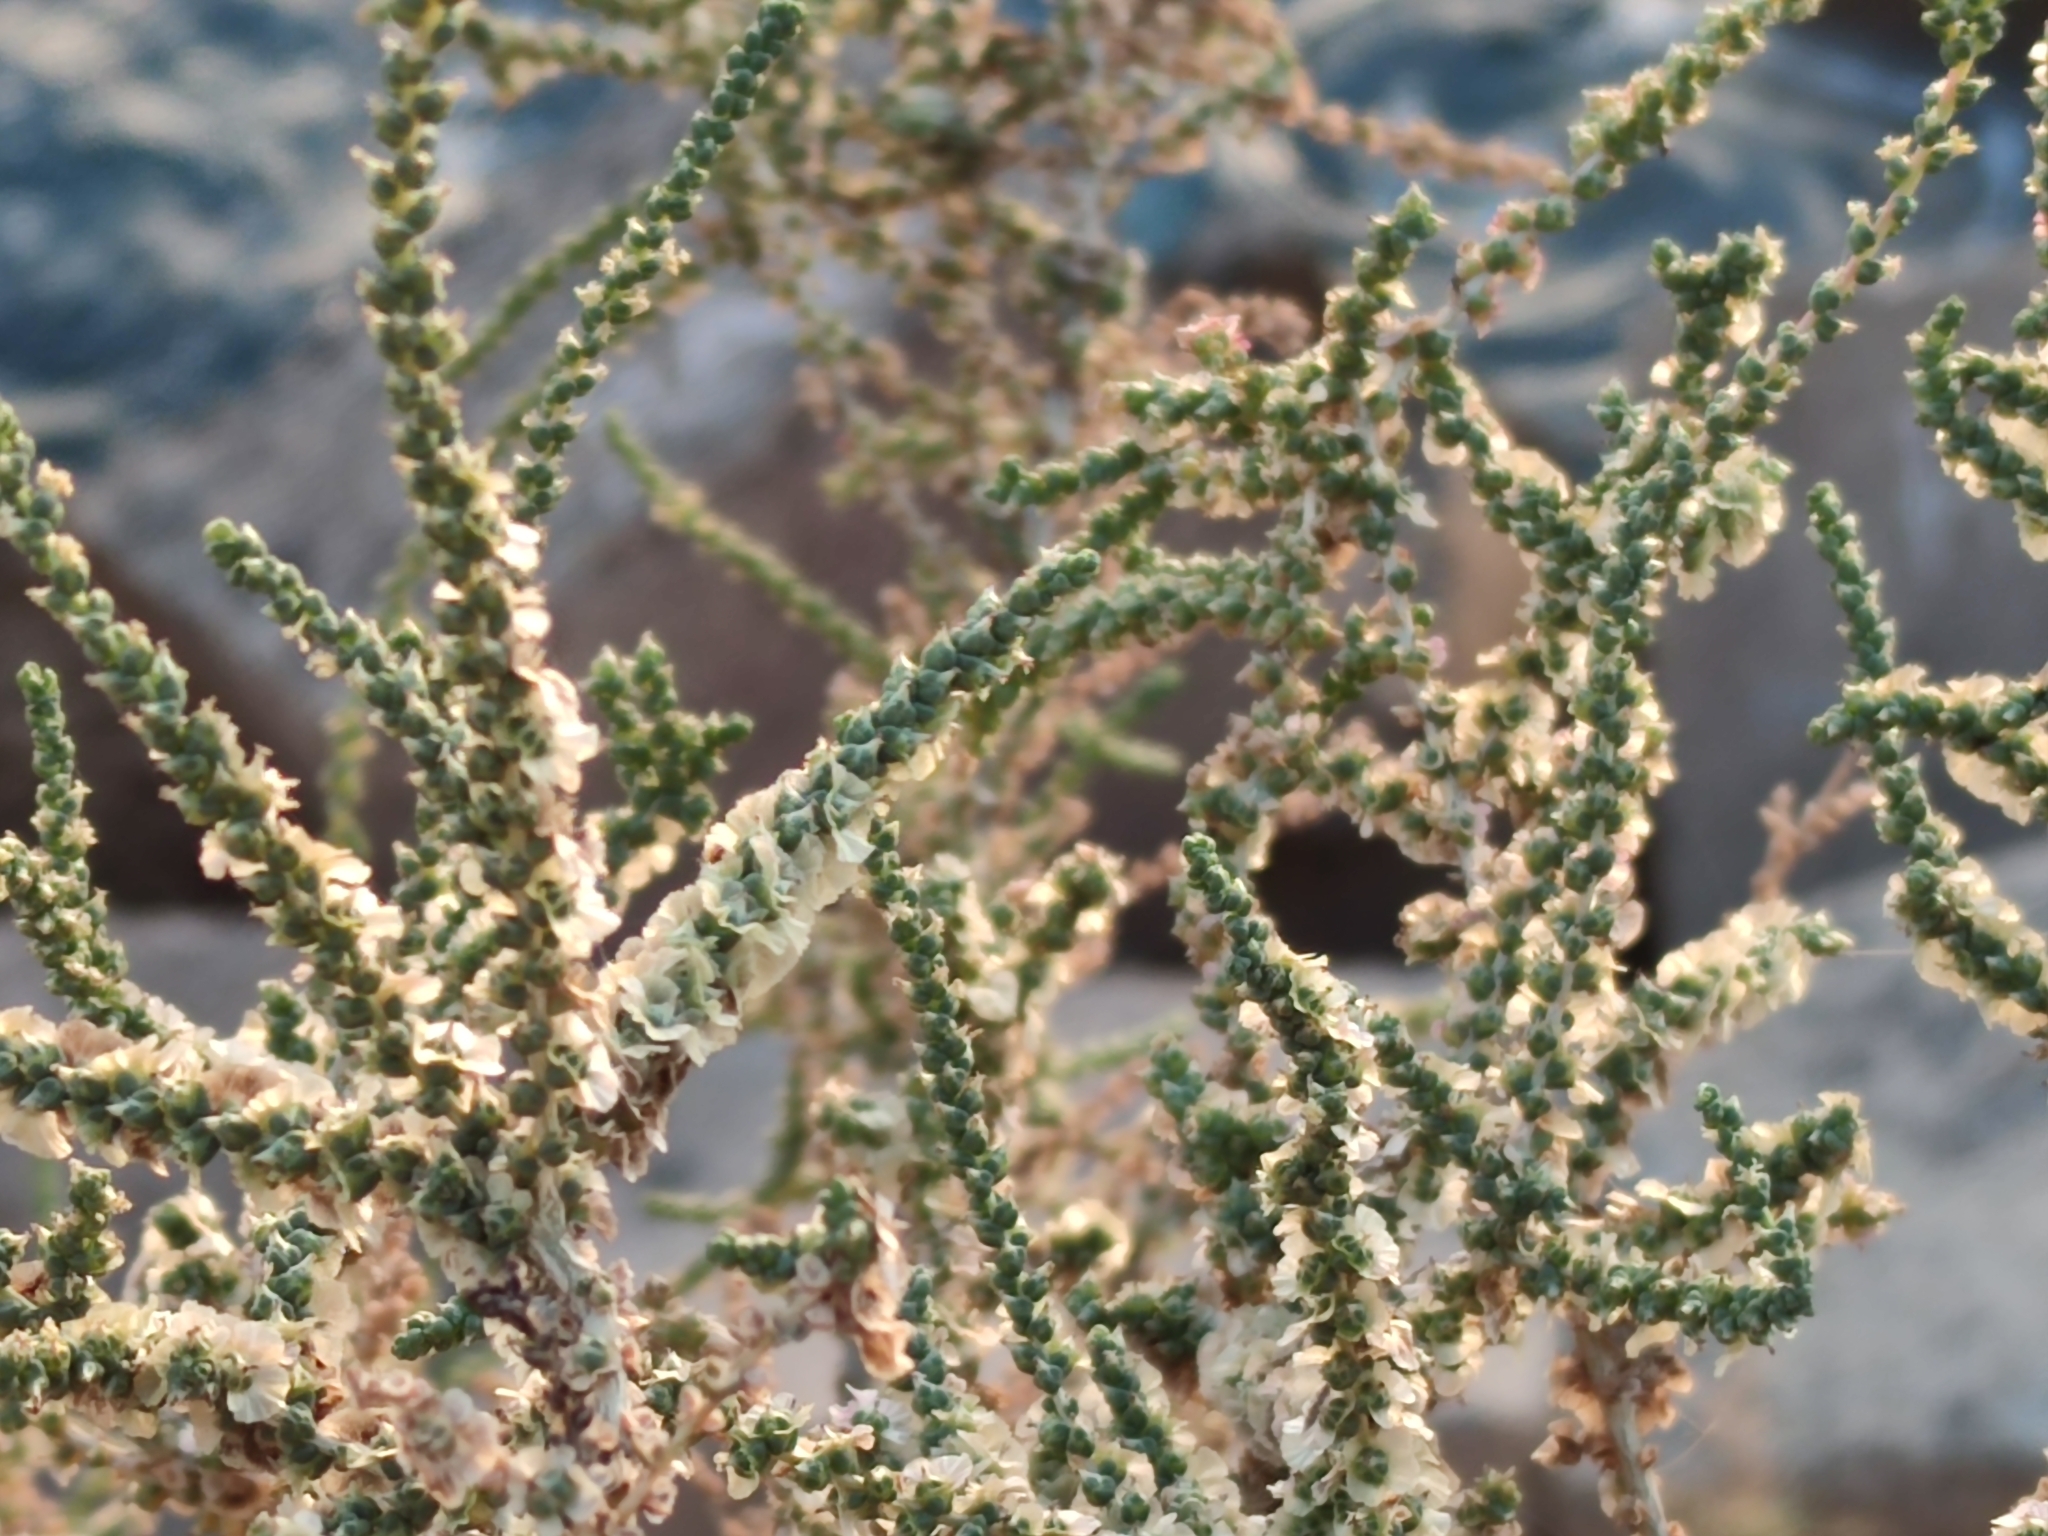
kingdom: Plantae
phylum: Tracheophyta
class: Magnoliopsida
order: Caryophyllales
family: Amaranthaceae
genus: Nitrosalsola
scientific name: Nitrosalsola vermiculata
